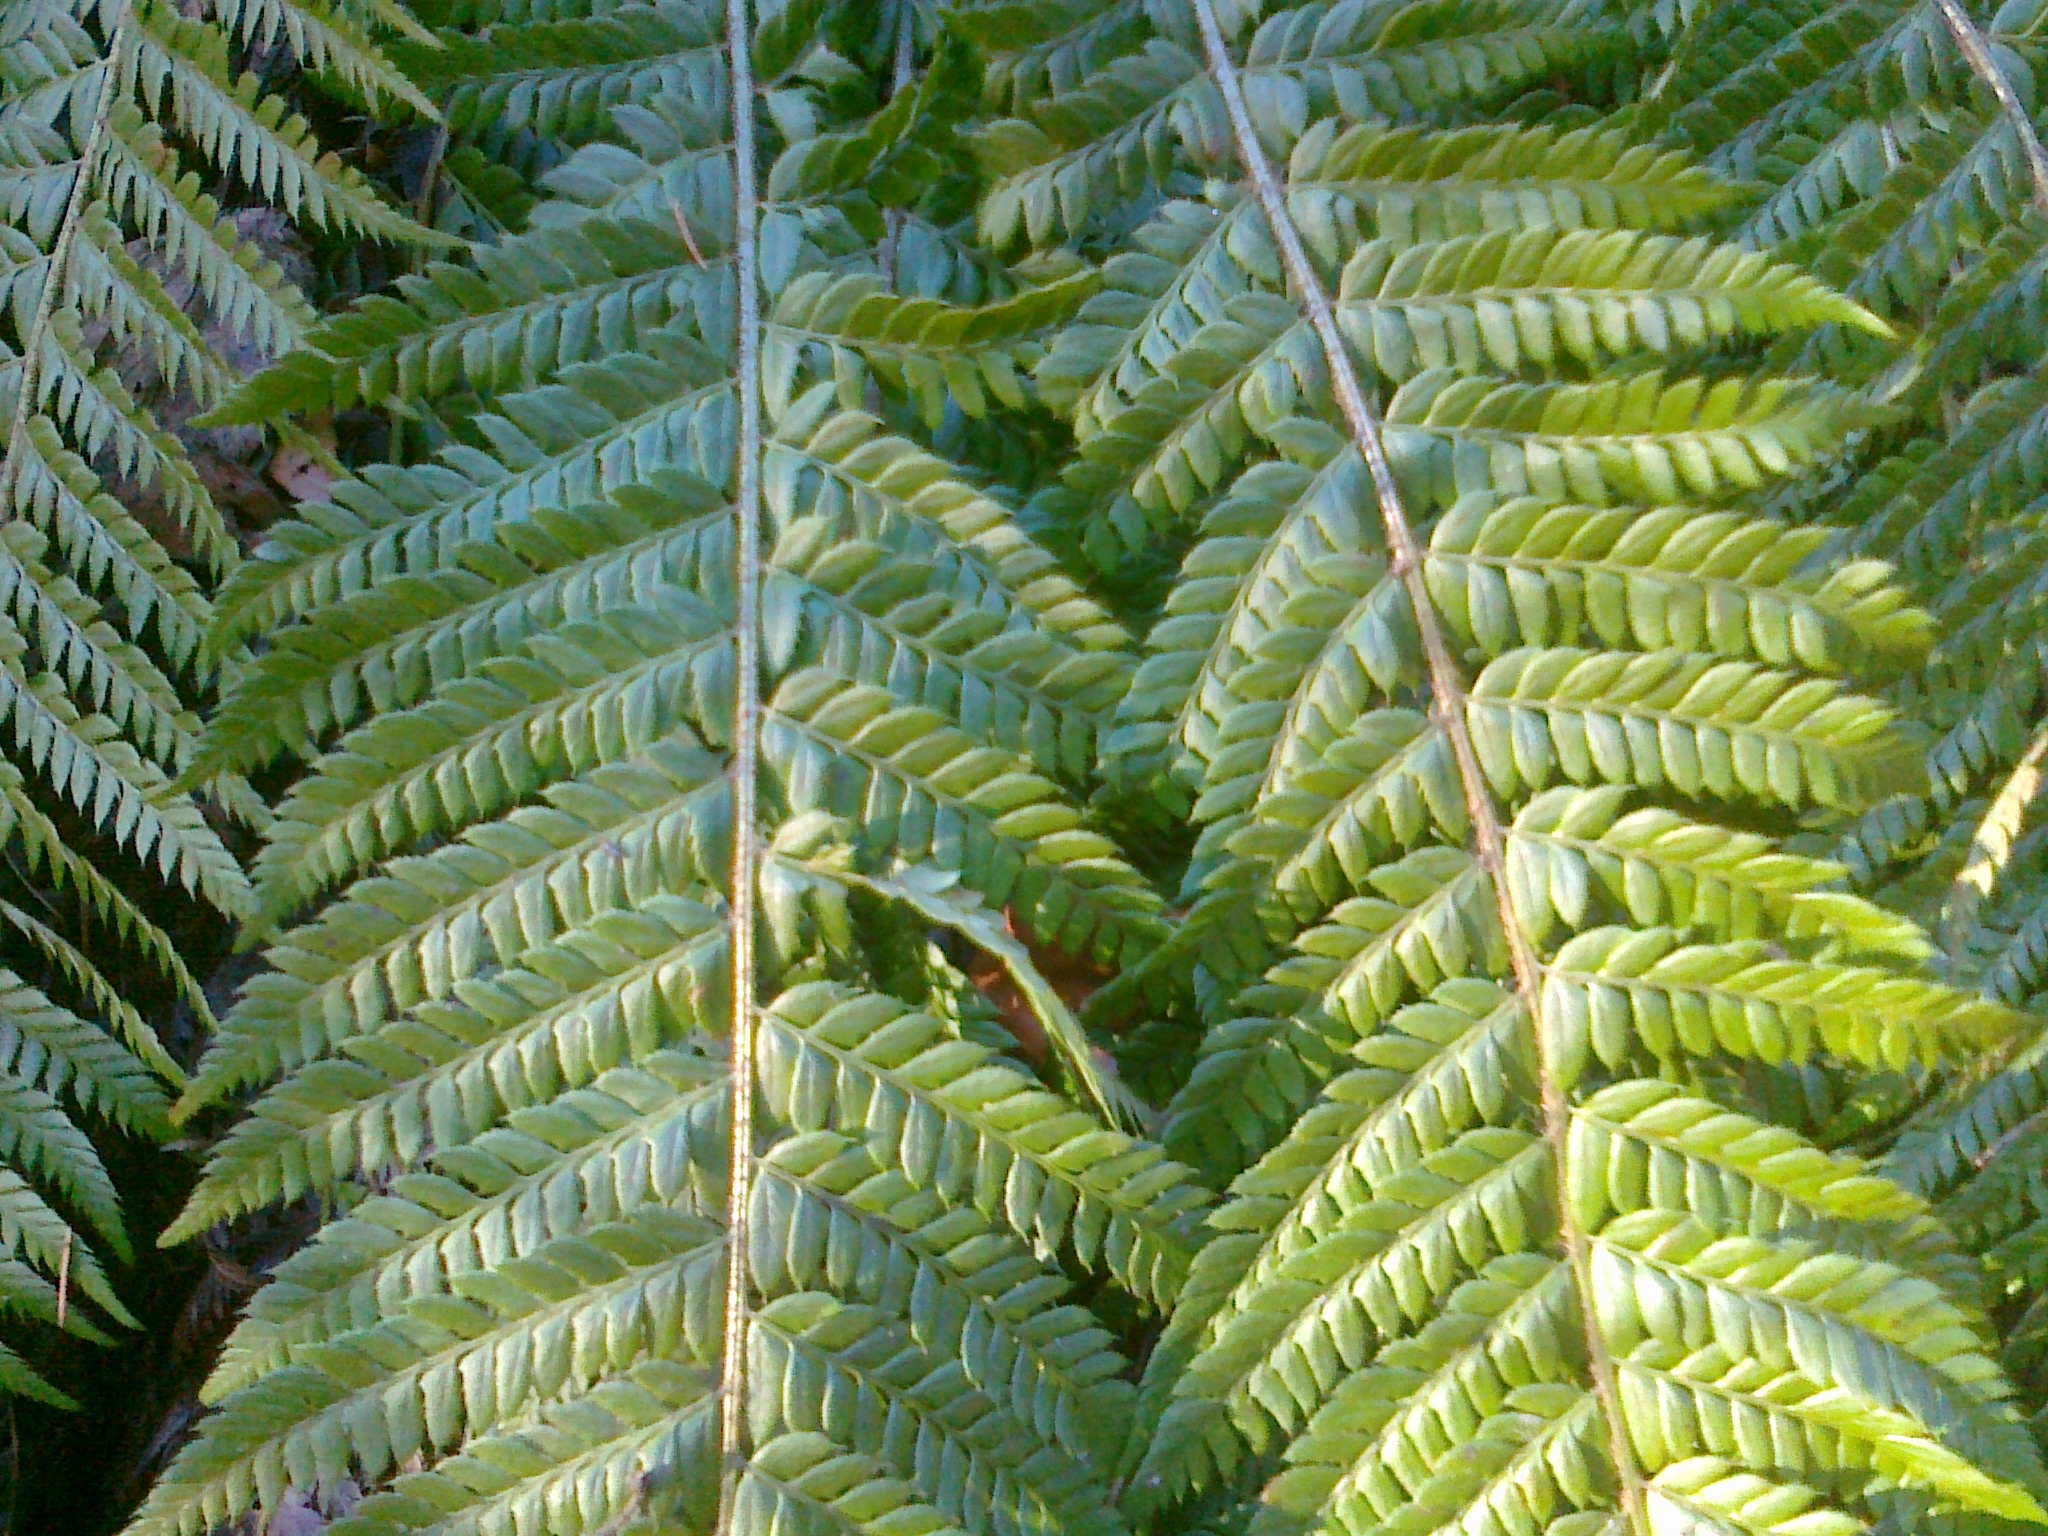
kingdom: Plantae
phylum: Tracheophyta
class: Polypodiopsida
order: Polypodiales
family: Dryopteridaceae
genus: Polystichum
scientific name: Polystichum aculeatum
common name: Hard shield-fern
